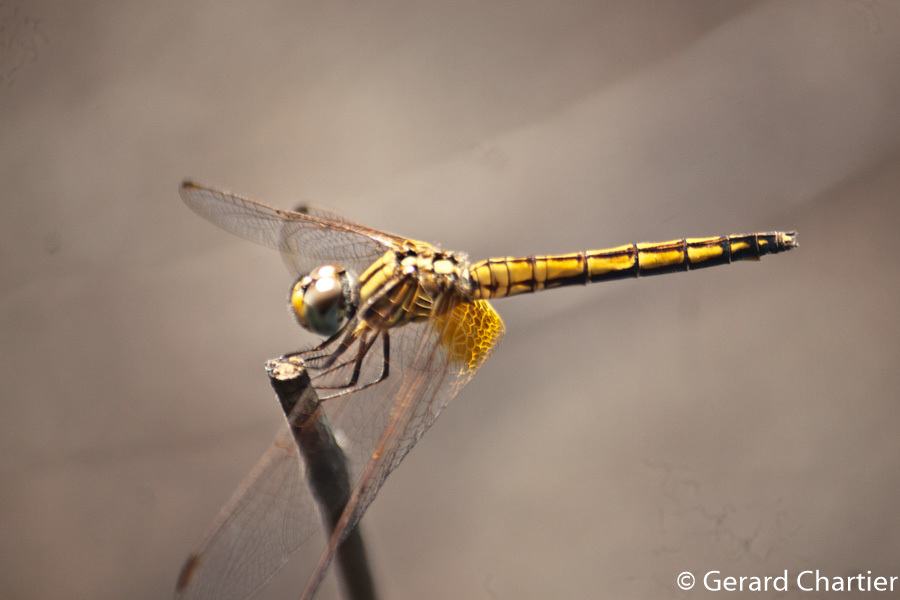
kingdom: Animalia
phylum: Arthropoda
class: Insecta
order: Odonata
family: Libellulidae
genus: Trithemis
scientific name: Trithemis aurora
